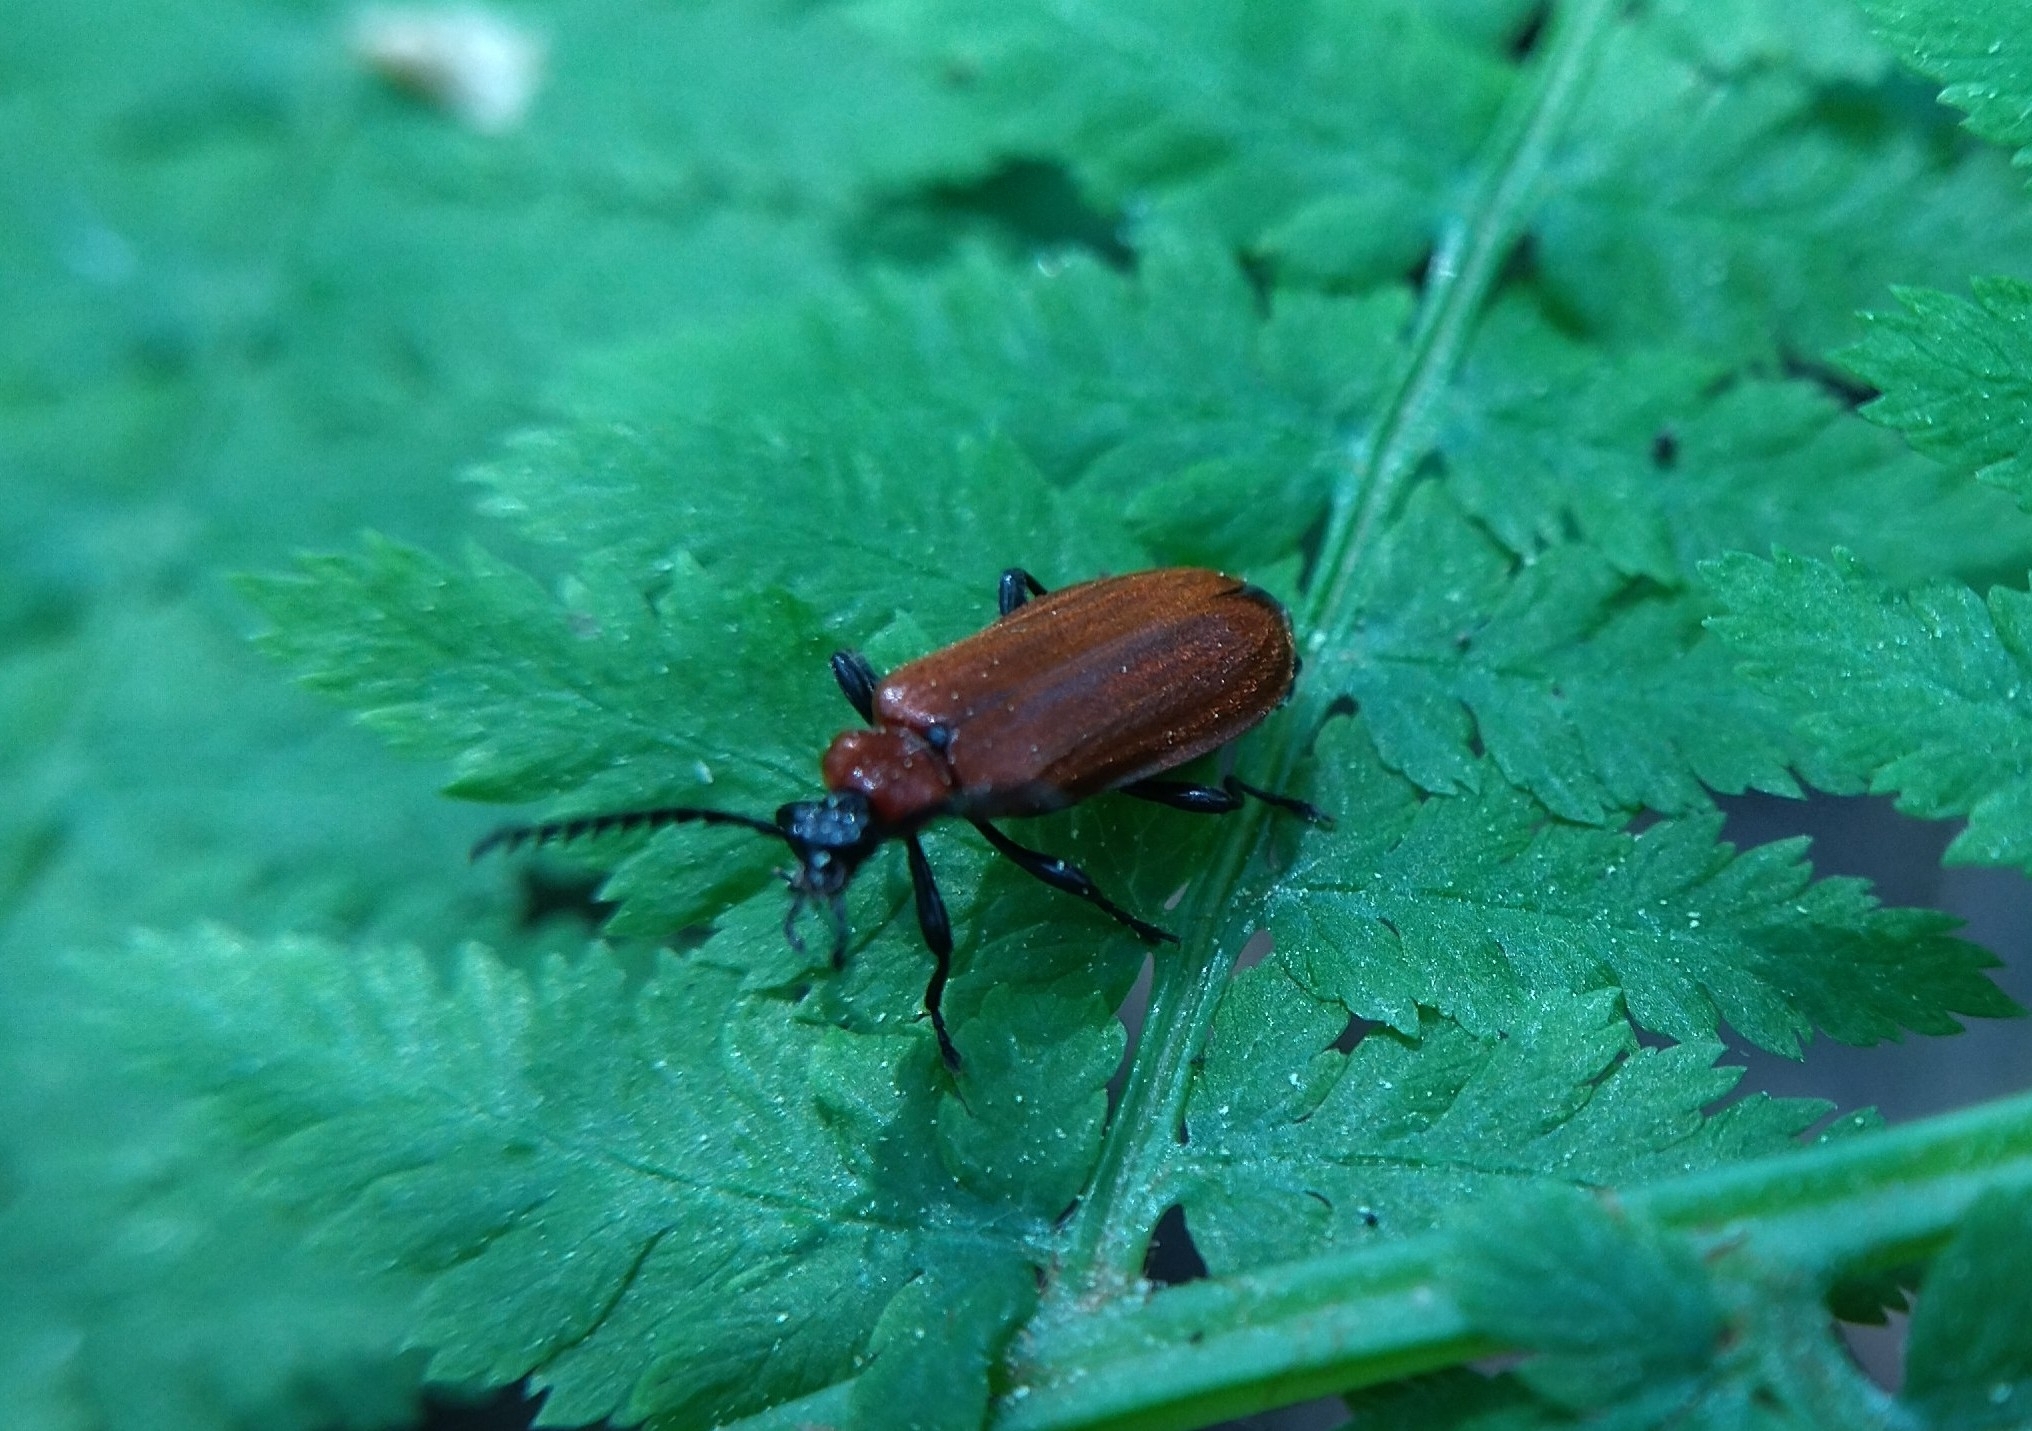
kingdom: Animalia
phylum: Arthropoda
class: Insecta
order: Coleoptera
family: Pyrochroidae
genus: Schizotus
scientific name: Schizotus pectinicornis
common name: Scarce cardinal beetle
